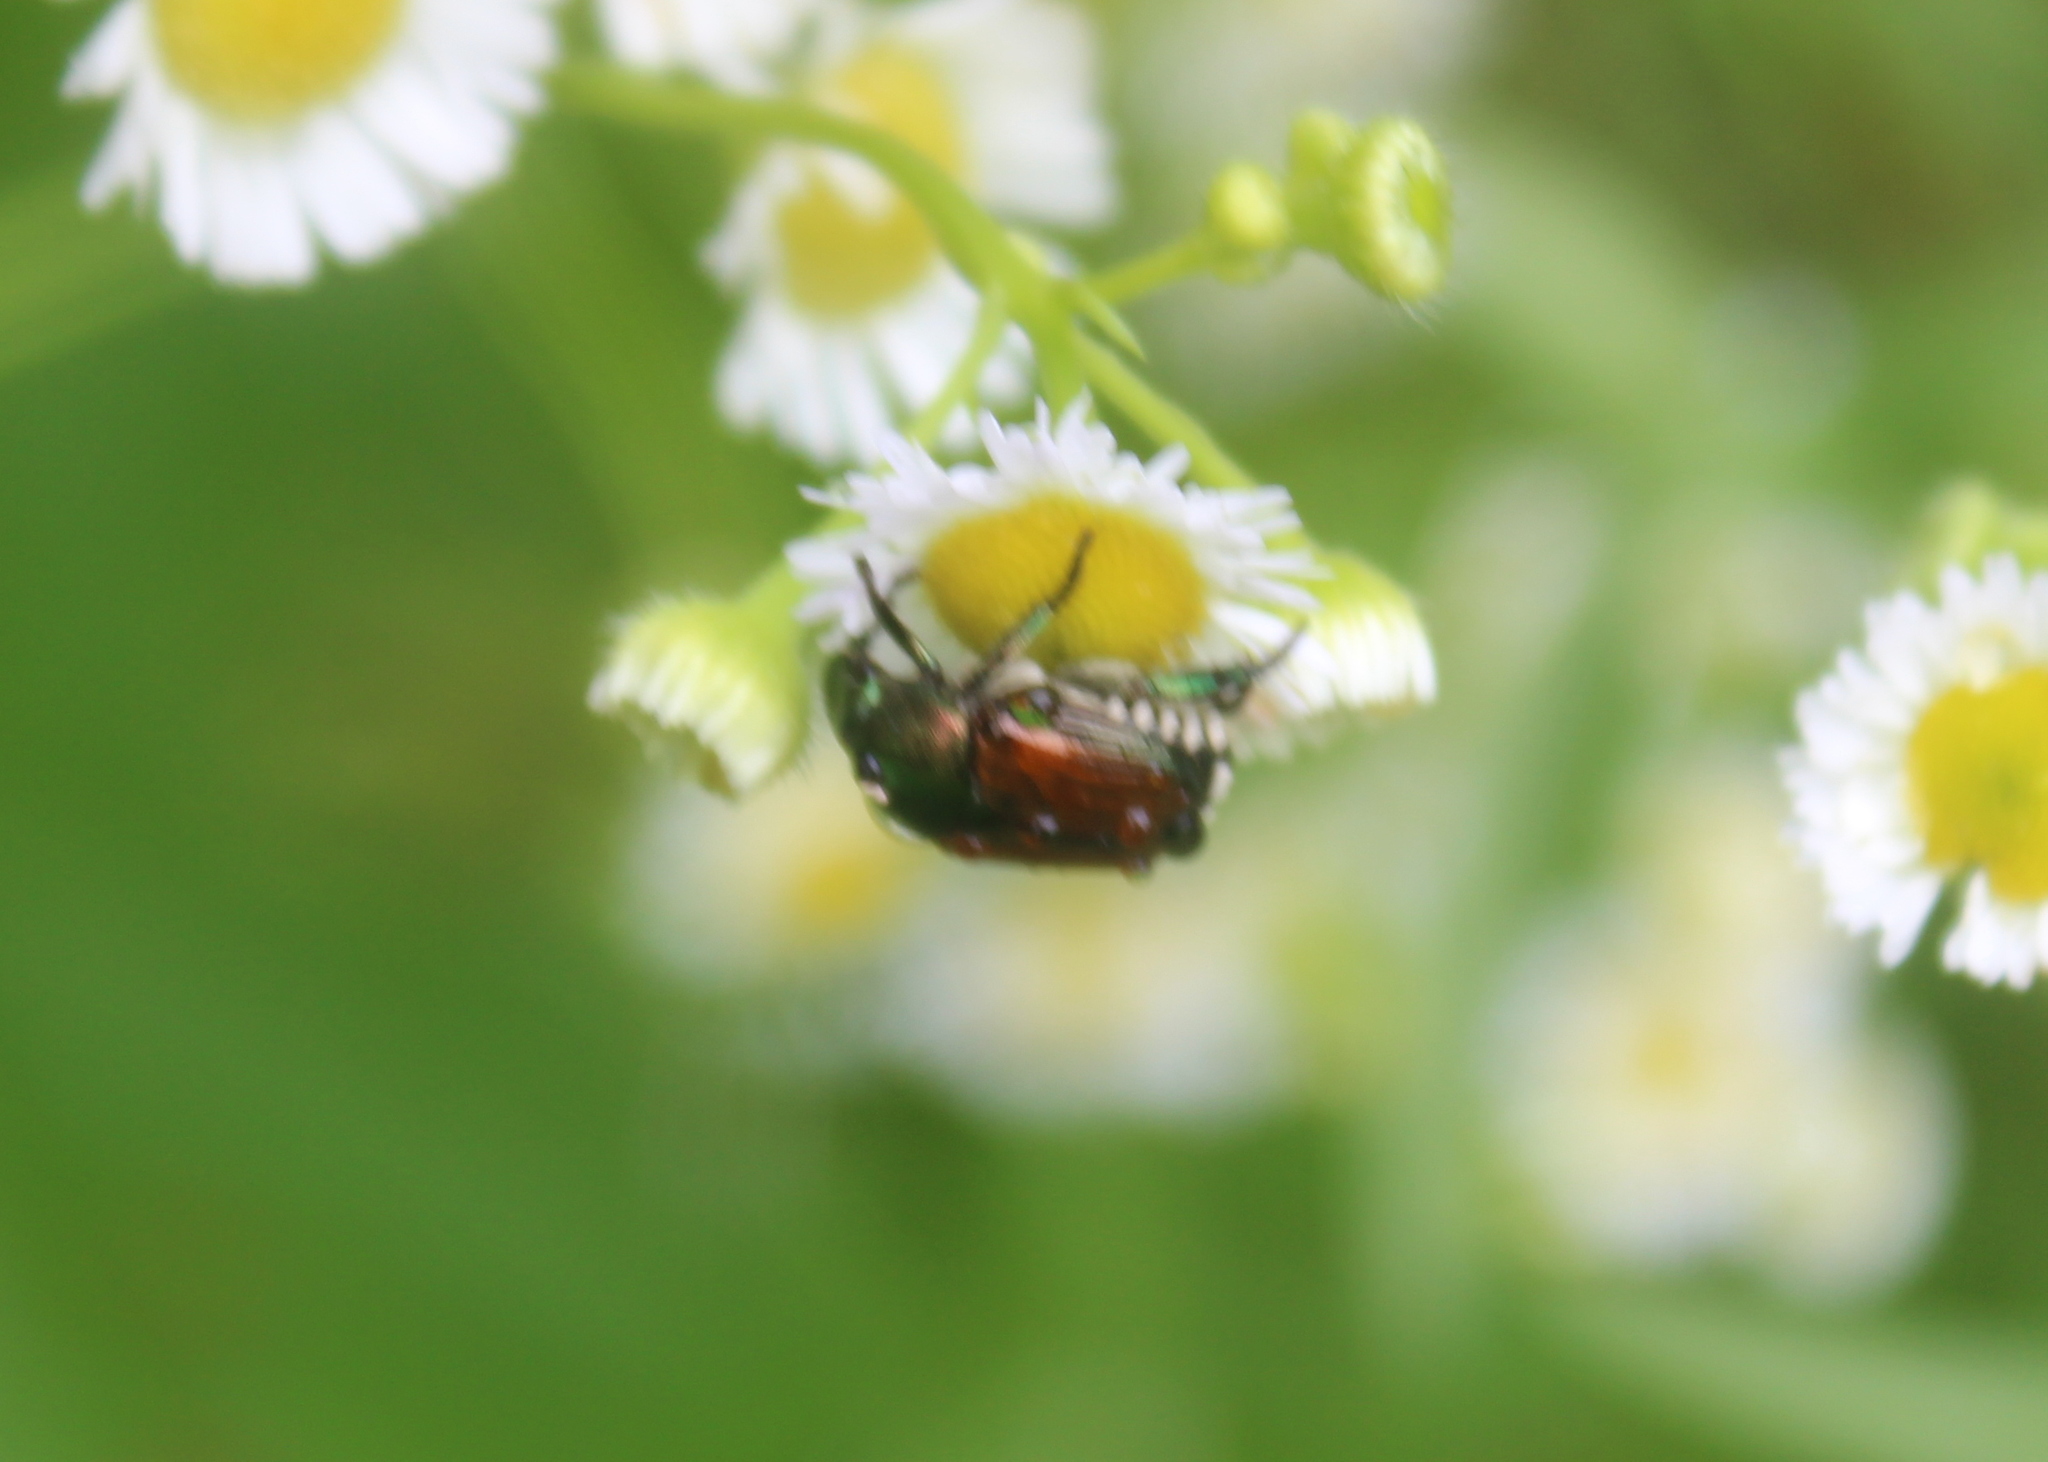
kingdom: Animalia
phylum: Arthropoda
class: Insecta
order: Coleoptera
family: Scarabaeidae
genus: Popillia
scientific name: Popillia japonica
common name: Japanese beetle
